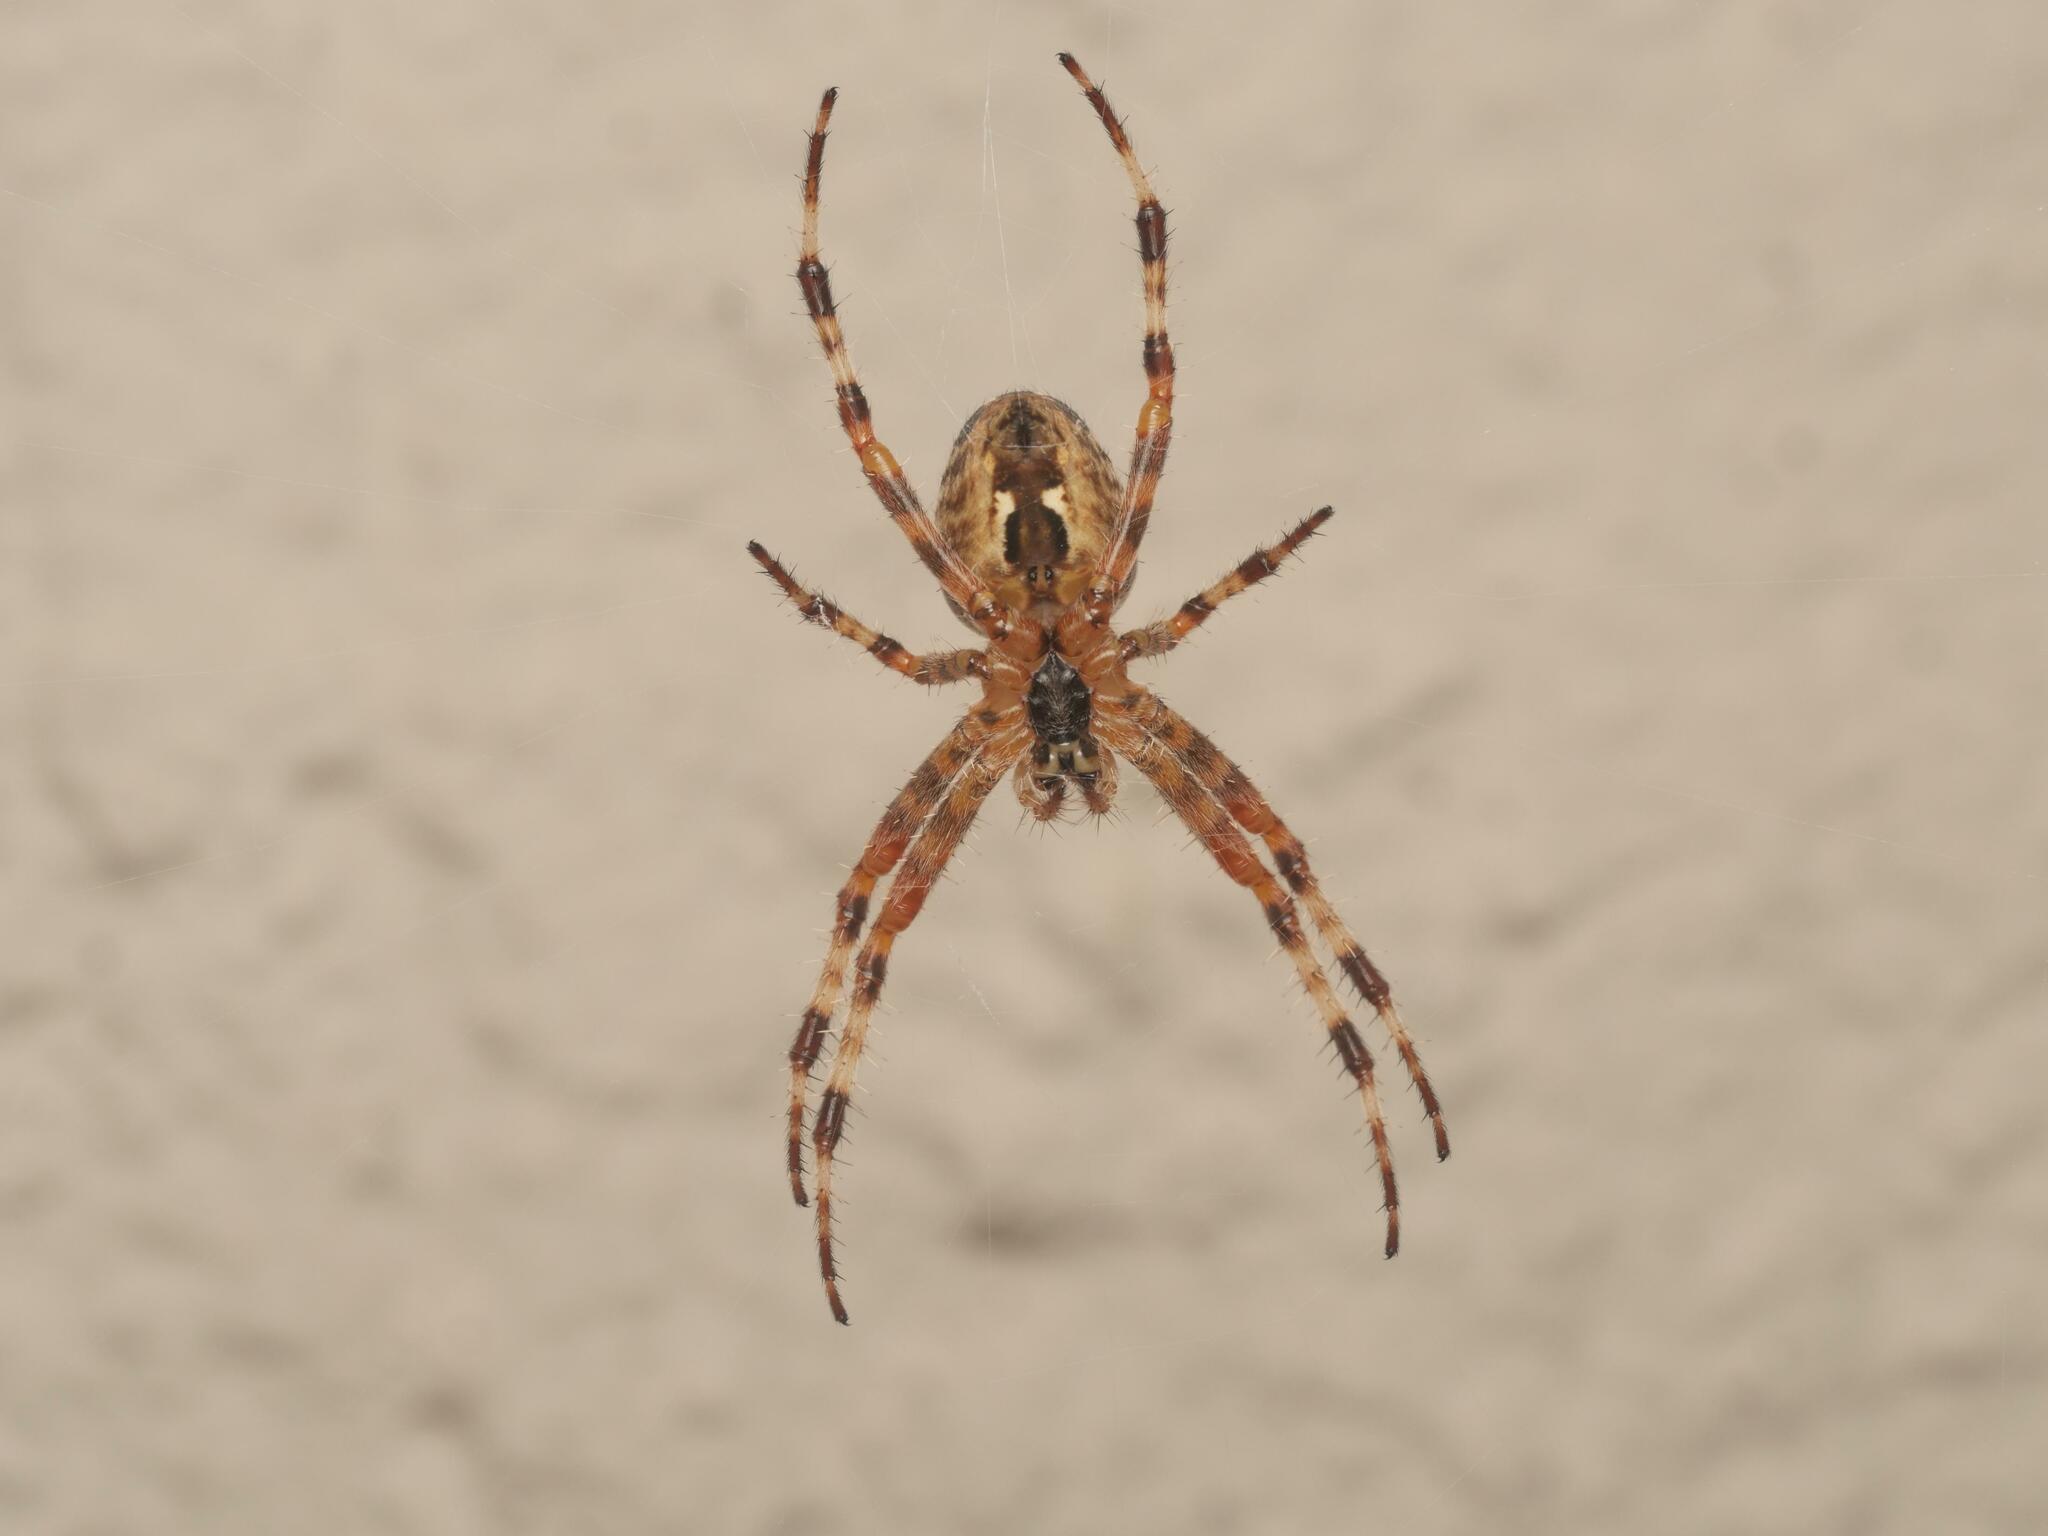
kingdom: Animalia
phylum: Arthropoda
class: Arachnida
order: Araneae
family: Araneidae
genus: Araneus
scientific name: Araneus diadematus
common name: Cross orbweaver
